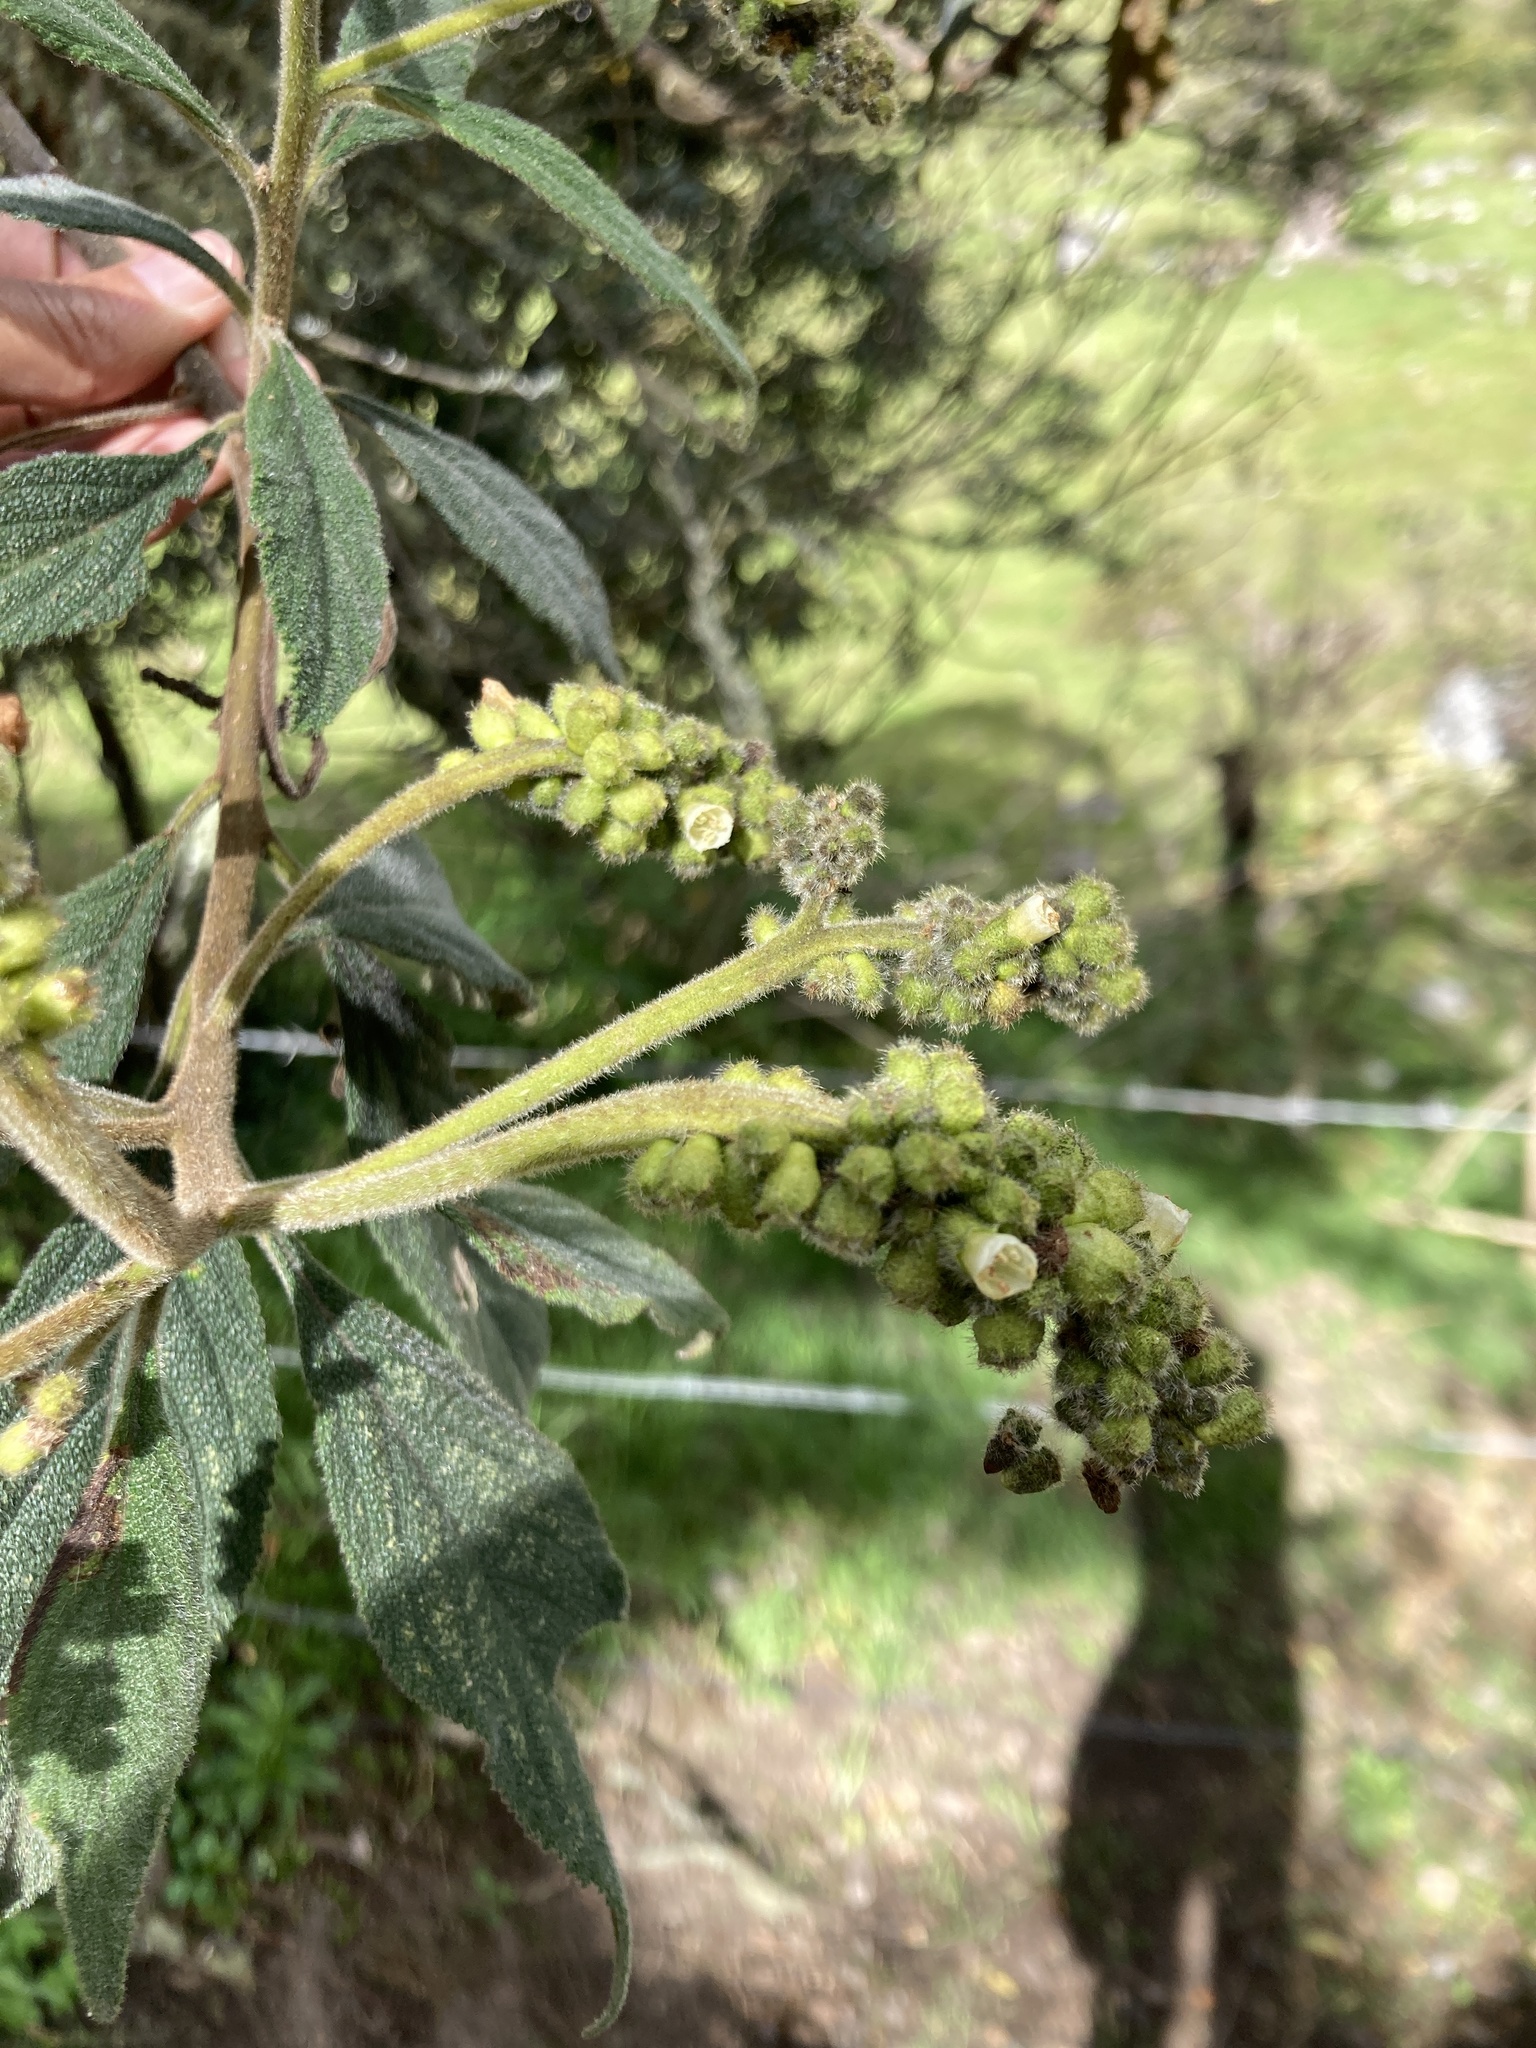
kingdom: Plantae
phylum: Tracheophyta
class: Magnoliopsida
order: Boraginales
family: Cordiaceae
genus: Varronia
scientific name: Varronia cylindrostachya
